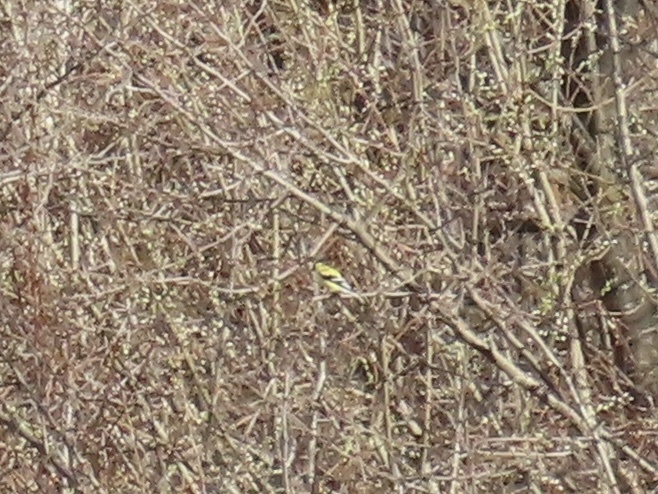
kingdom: Animalia
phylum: Chordata
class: Aves
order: Passeriformes
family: Fringillidae
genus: Spinus
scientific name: Spinus tristis
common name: American goldfinch
